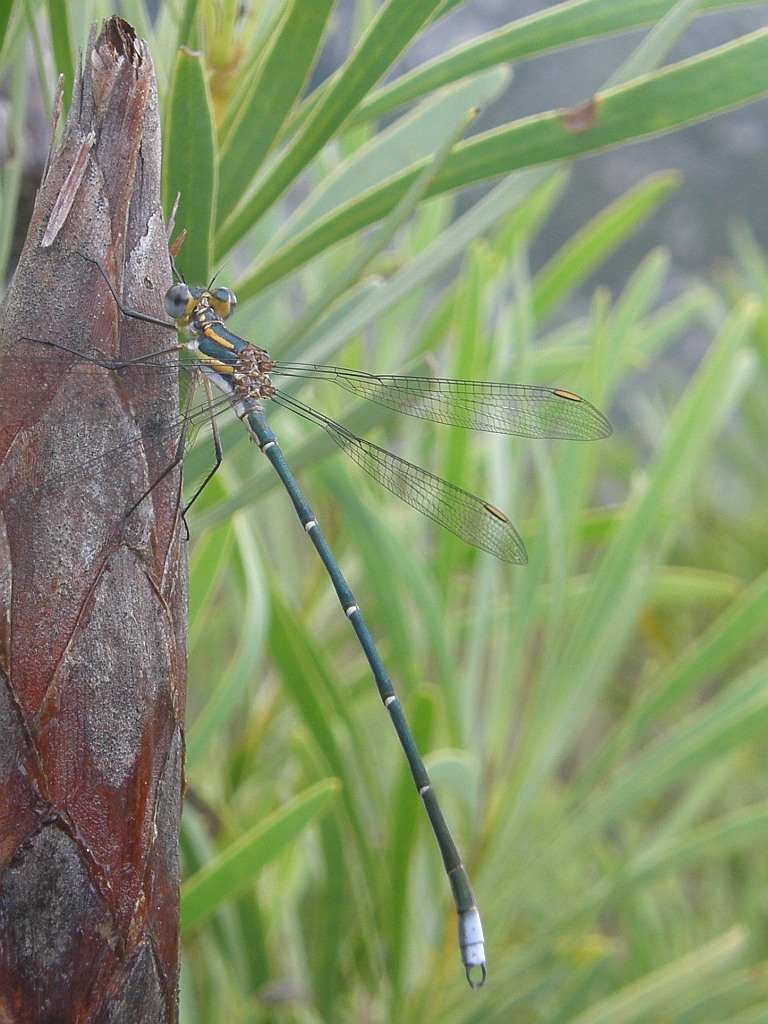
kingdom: Animalia
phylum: Arthropoda
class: Insecta
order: Odonata
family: Synlestidae
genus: Chlorolestes
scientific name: Chlorolestes conspicuus
